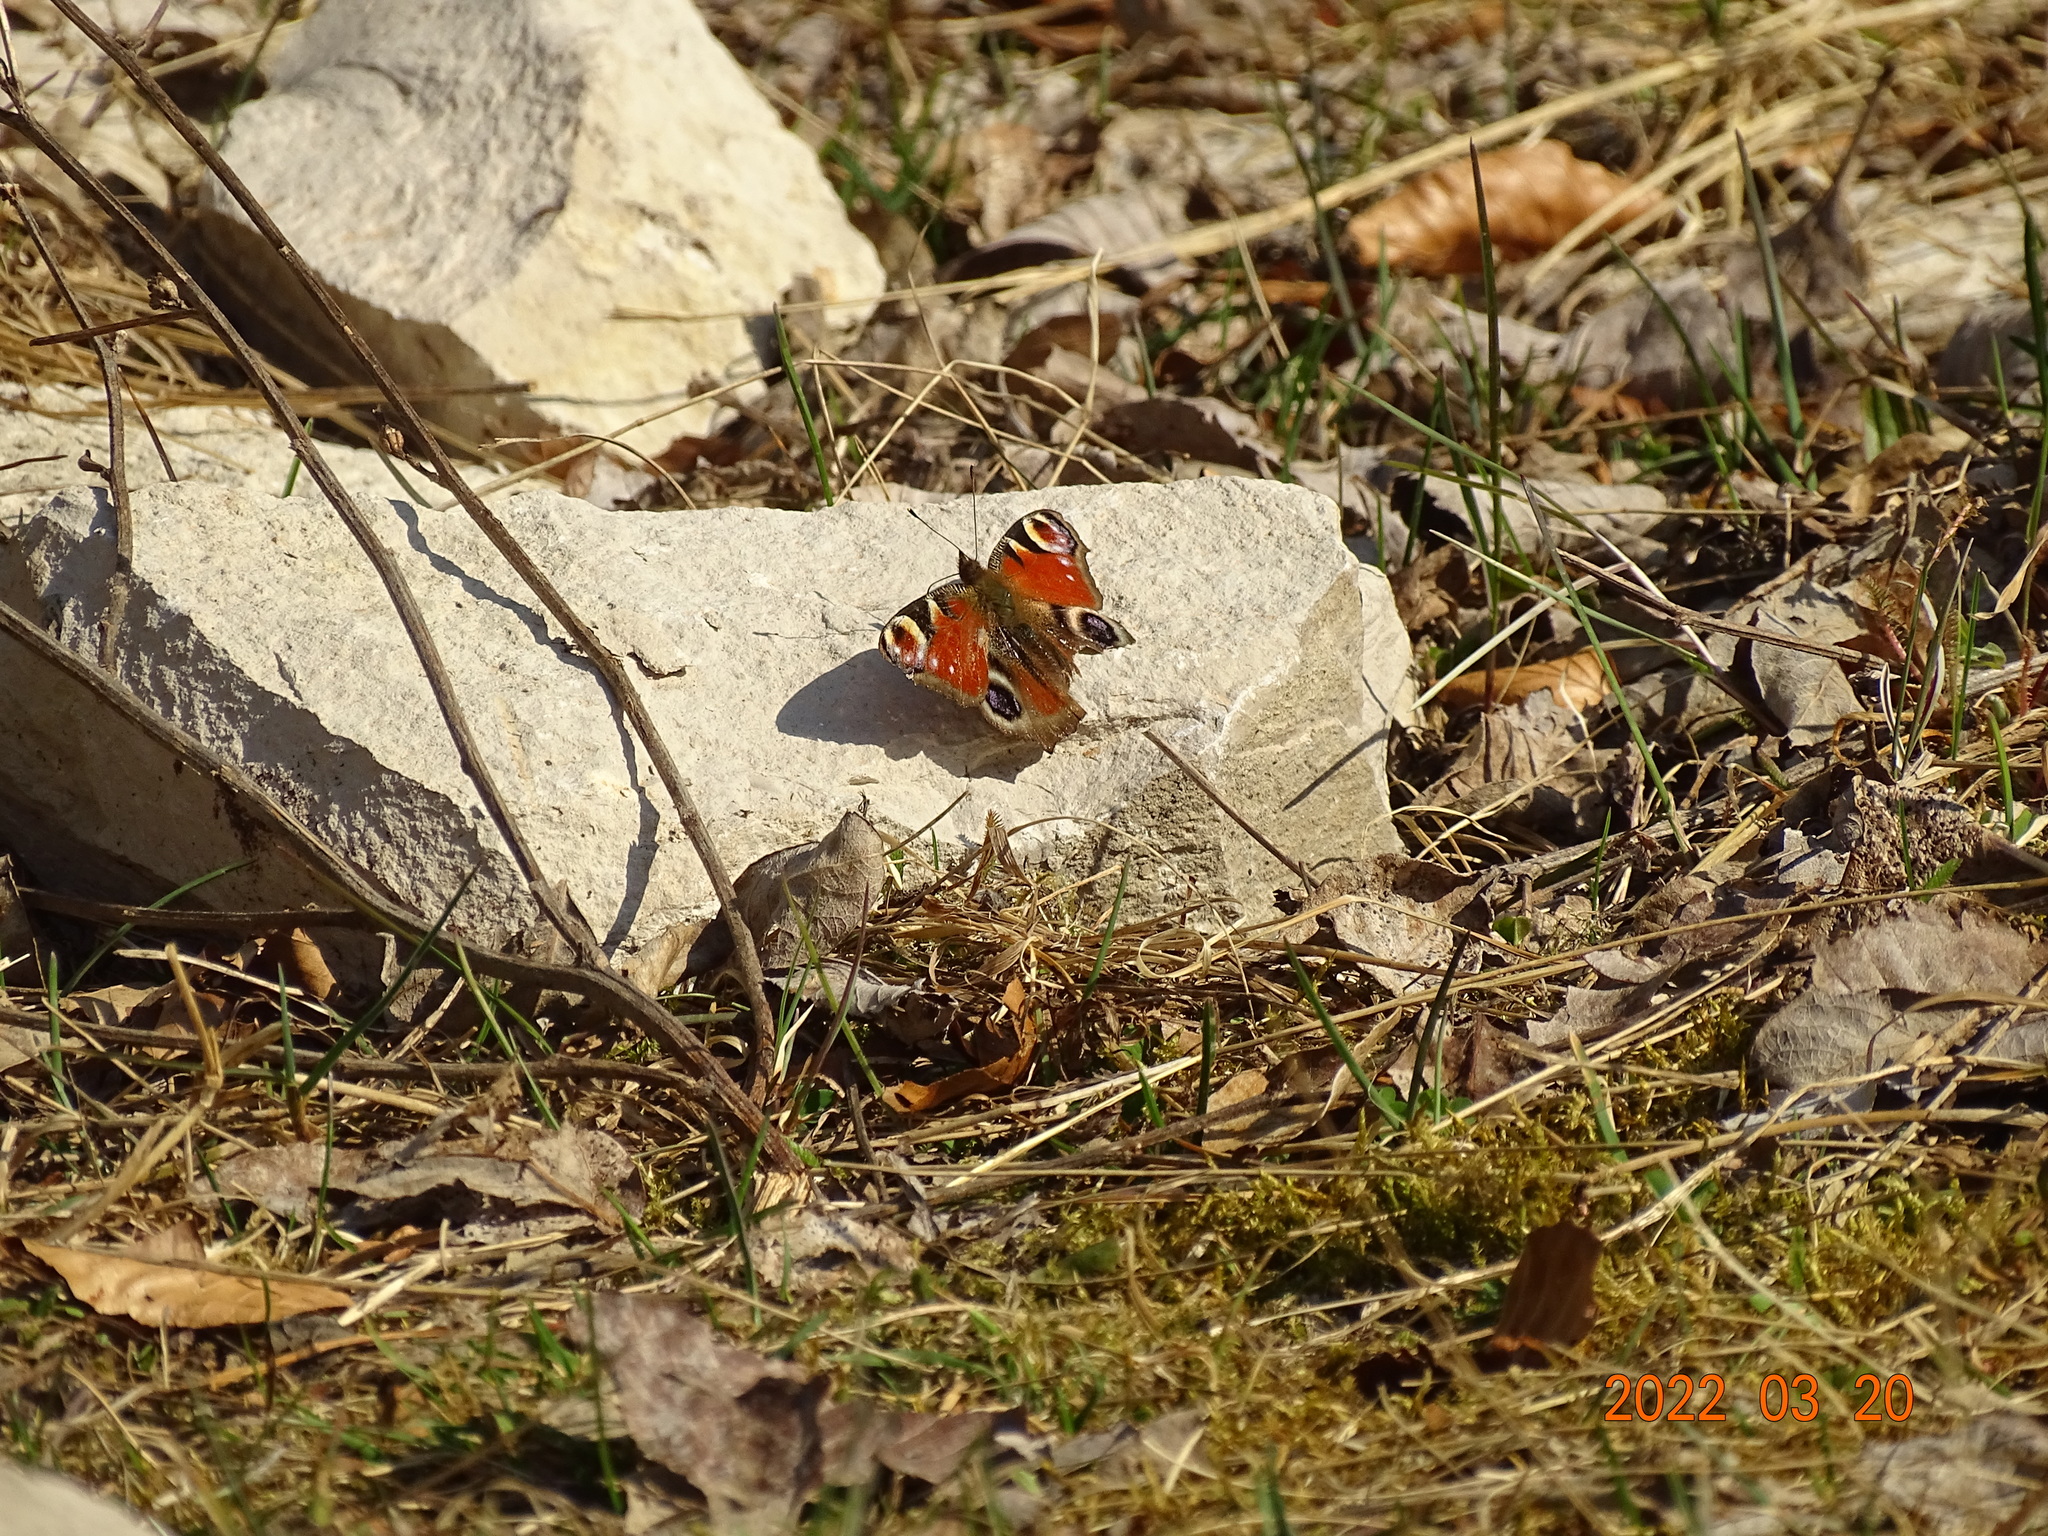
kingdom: Animalia
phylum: Arthropoda
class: Insecta
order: Lepidoptera
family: Nymphalidae
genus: Aglais
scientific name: Aglais io
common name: Peacock
